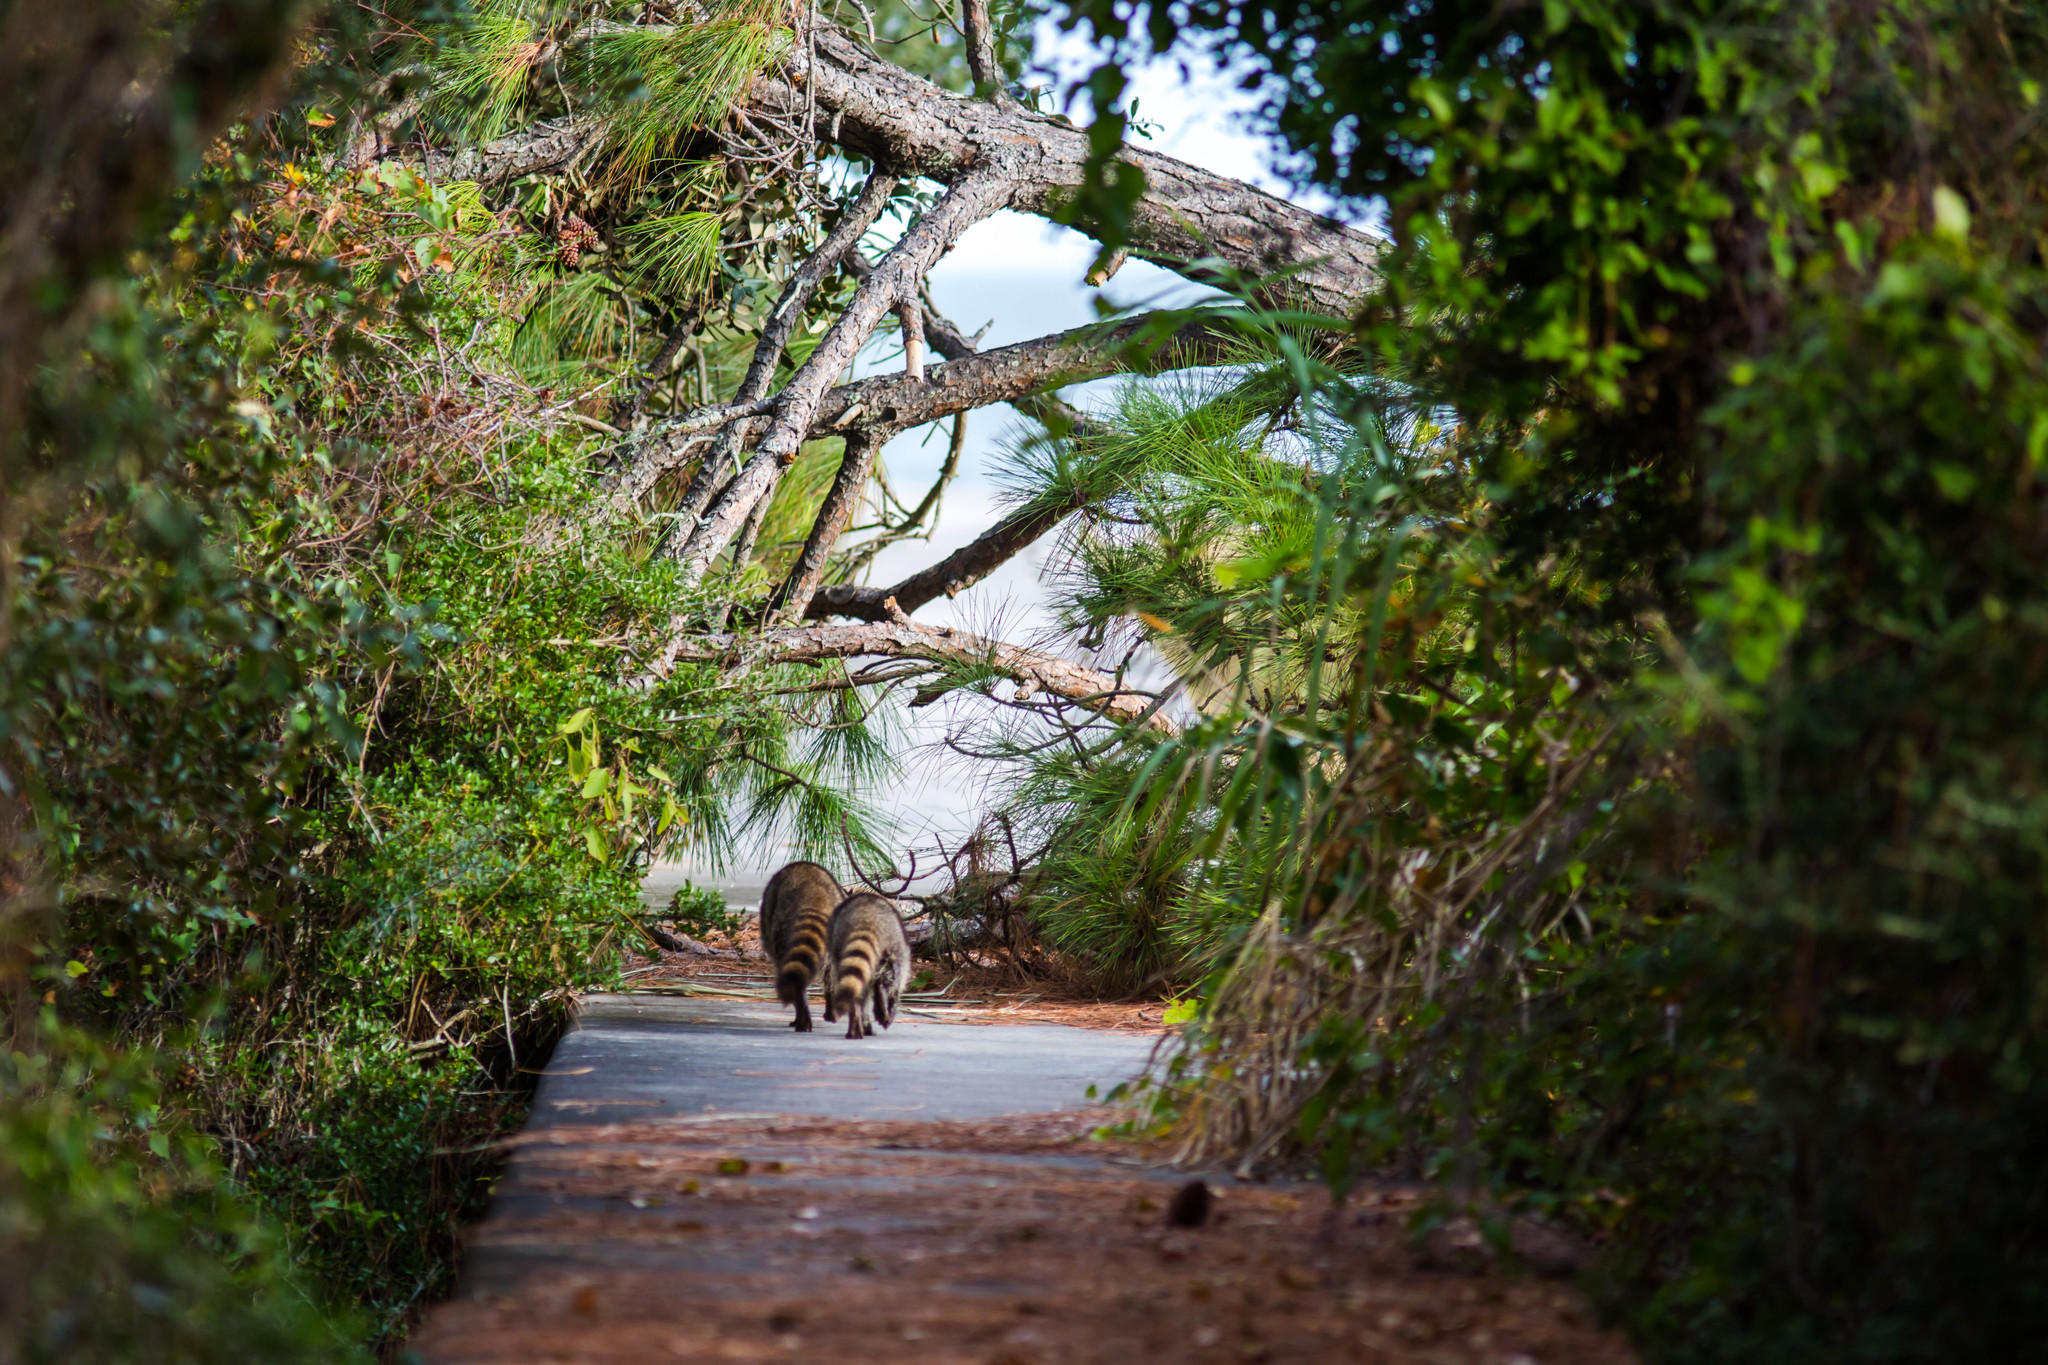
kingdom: Animalia
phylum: Chordata
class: Mammalia
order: Carnivora
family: Procyonidae
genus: Procyon
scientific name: Procyon lotor
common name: Raccoon
